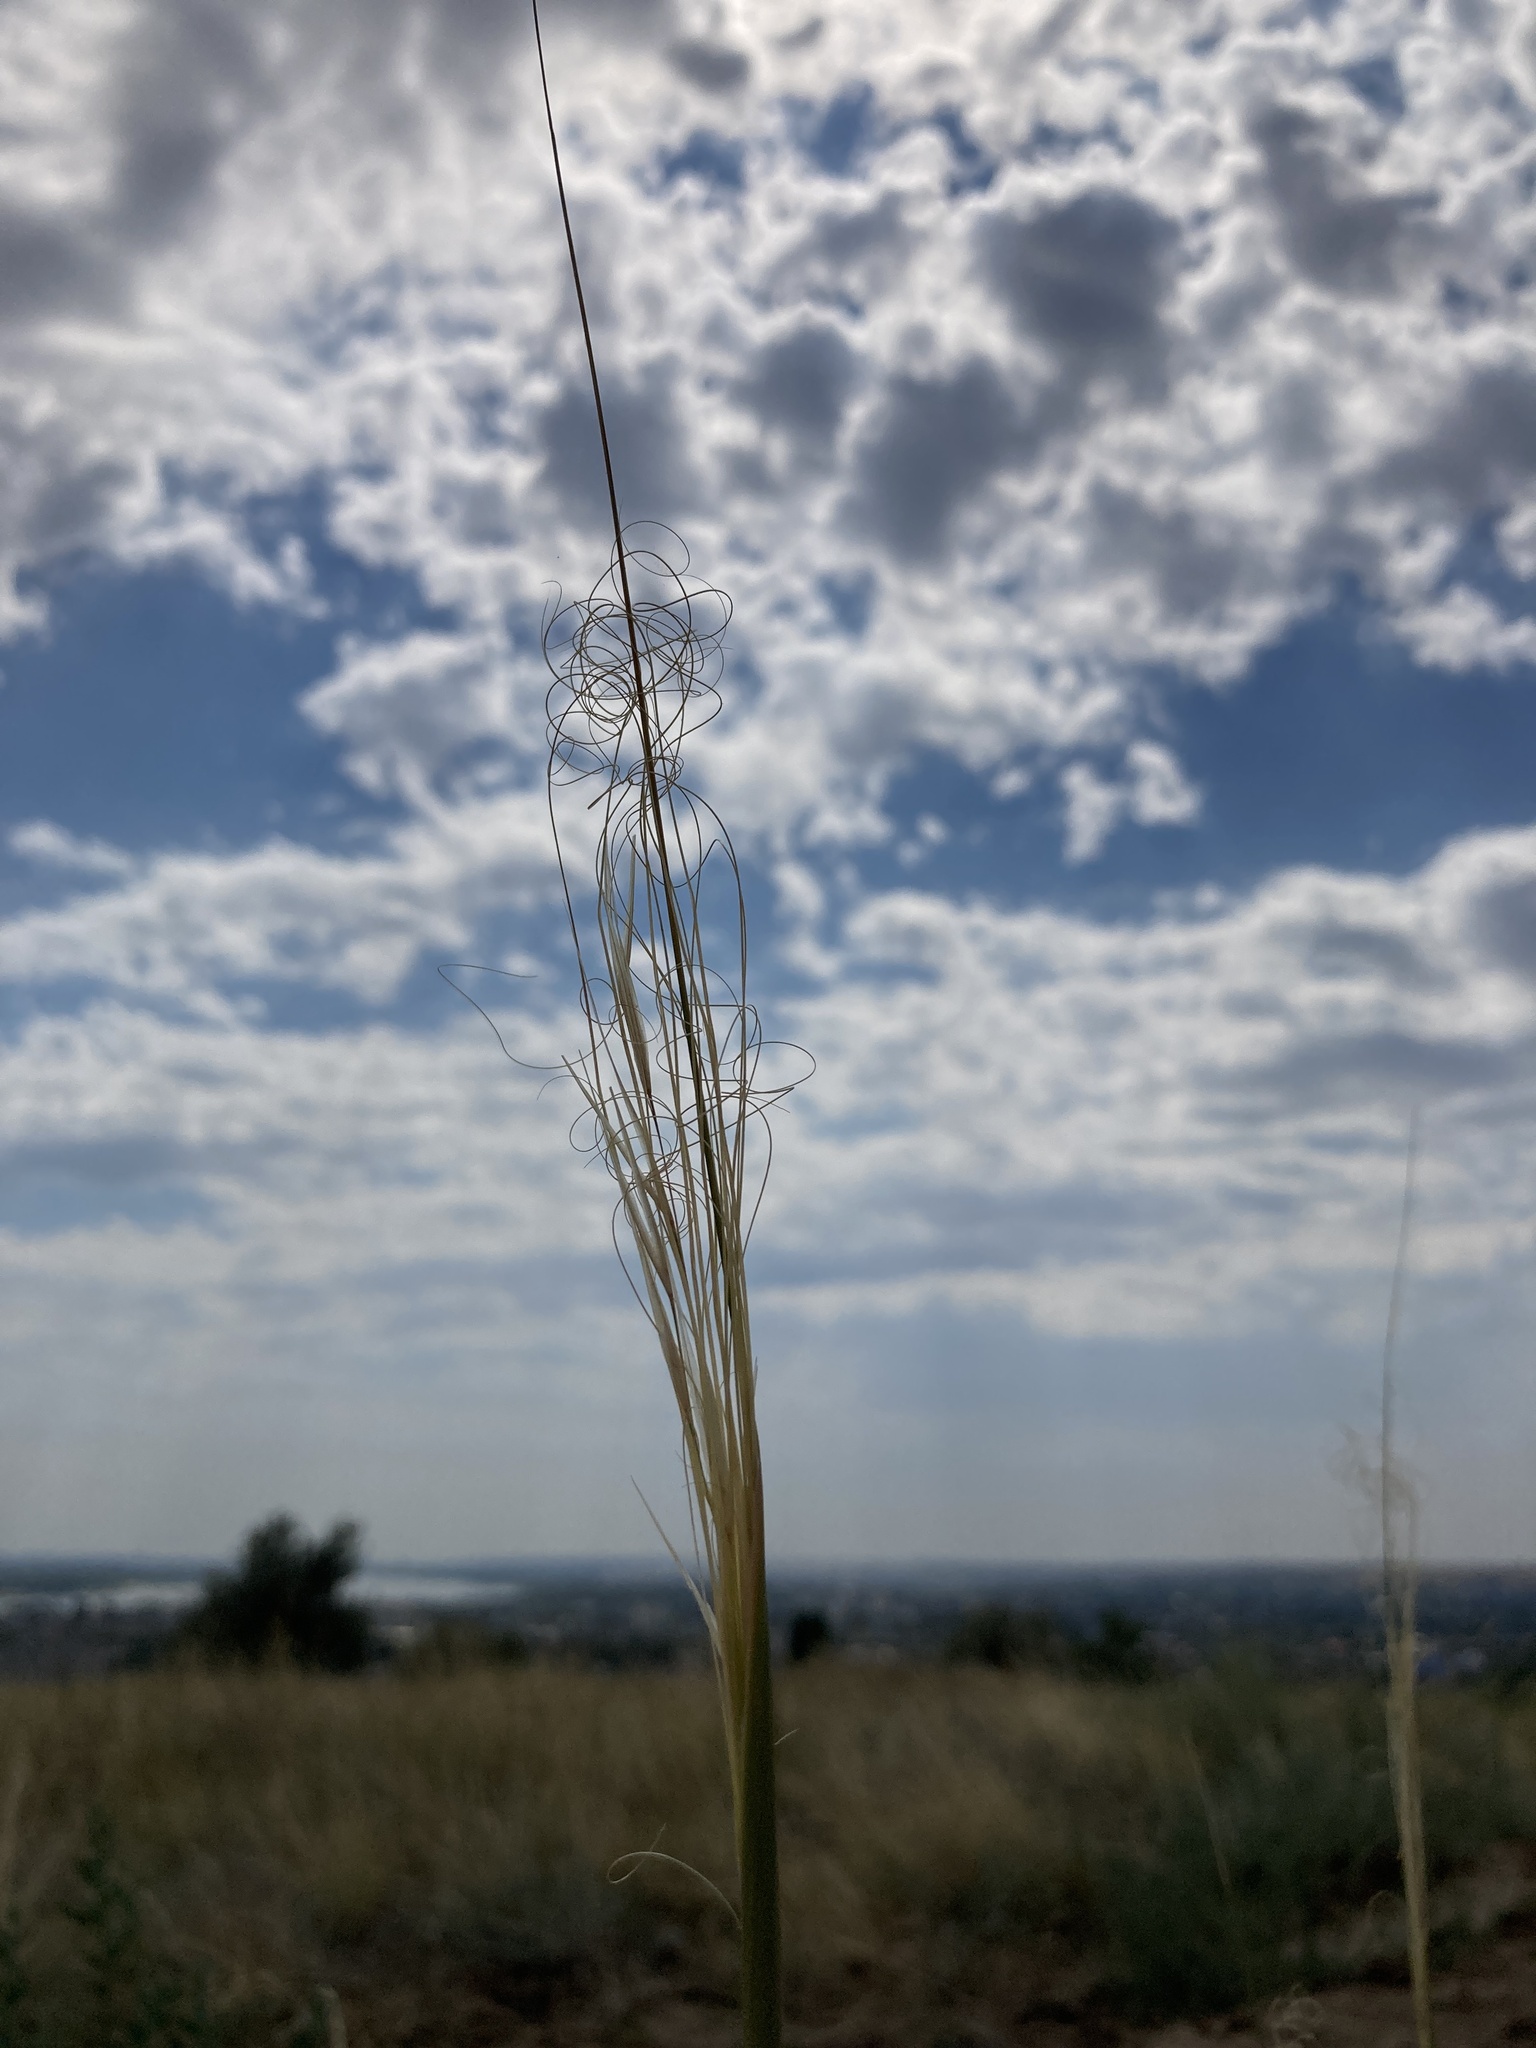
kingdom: Plantae
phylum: Tracheophyta
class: Liliopsida
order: Poales
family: Poaceae
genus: Stipa
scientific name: Stipa capillata
